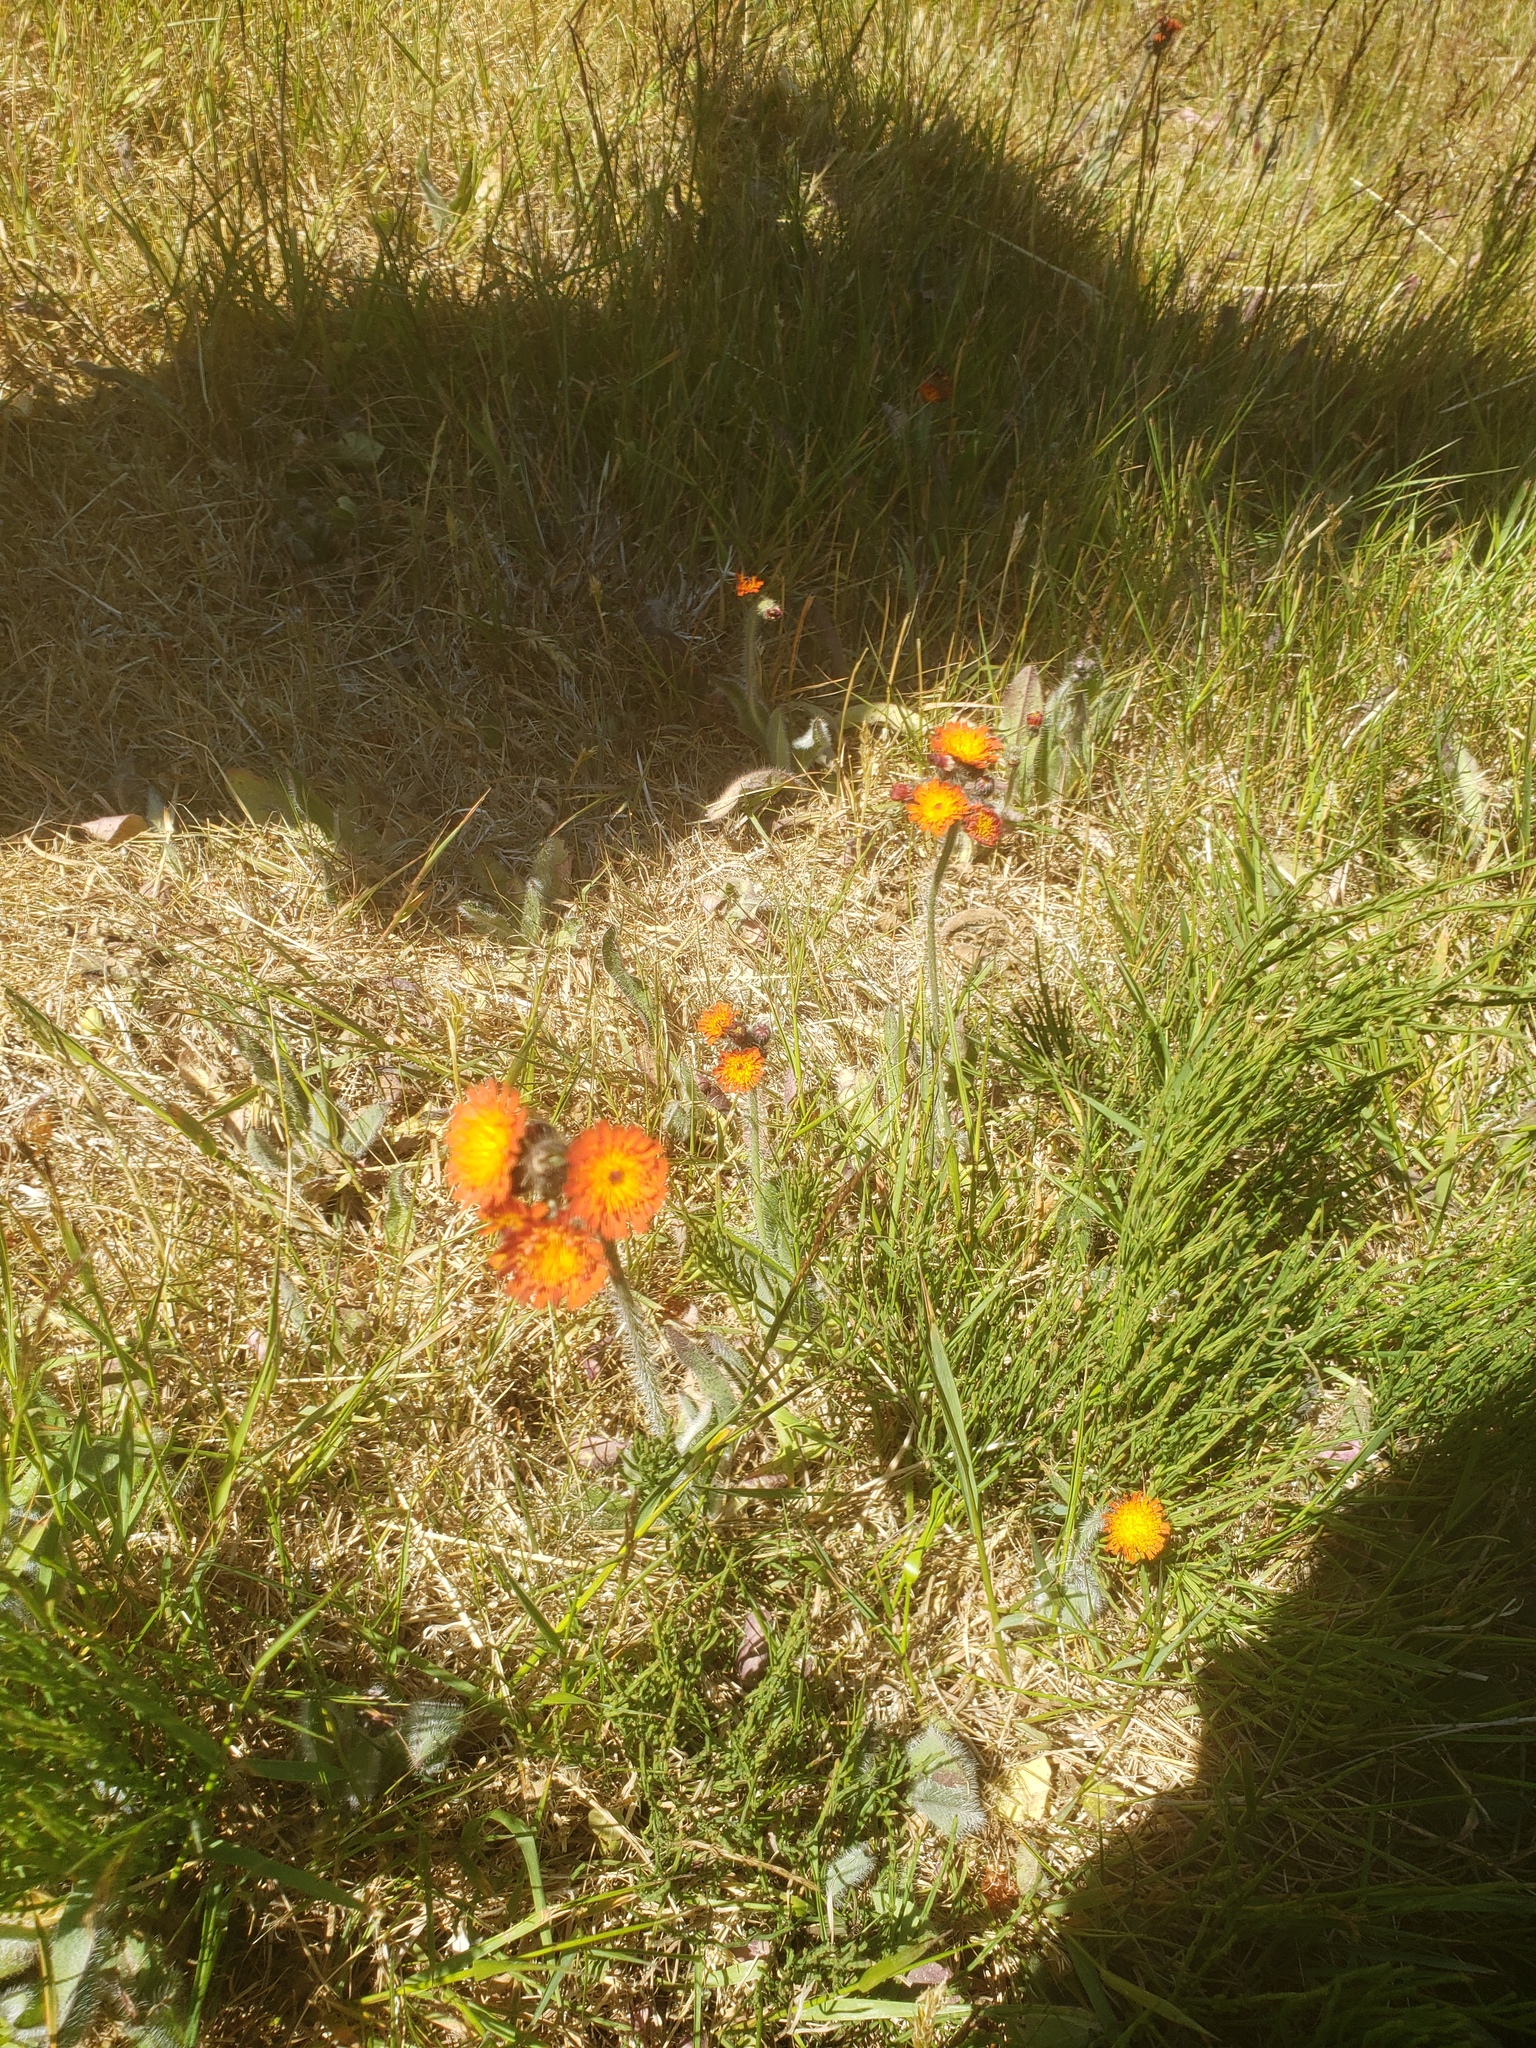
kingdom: Plantae
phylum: Tracheophyta
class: Magnoliopsida
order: Asterales
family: Asteraceae
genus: Pilosella
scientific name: Pilosella aurantiaca
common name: Fox-and-cubs
